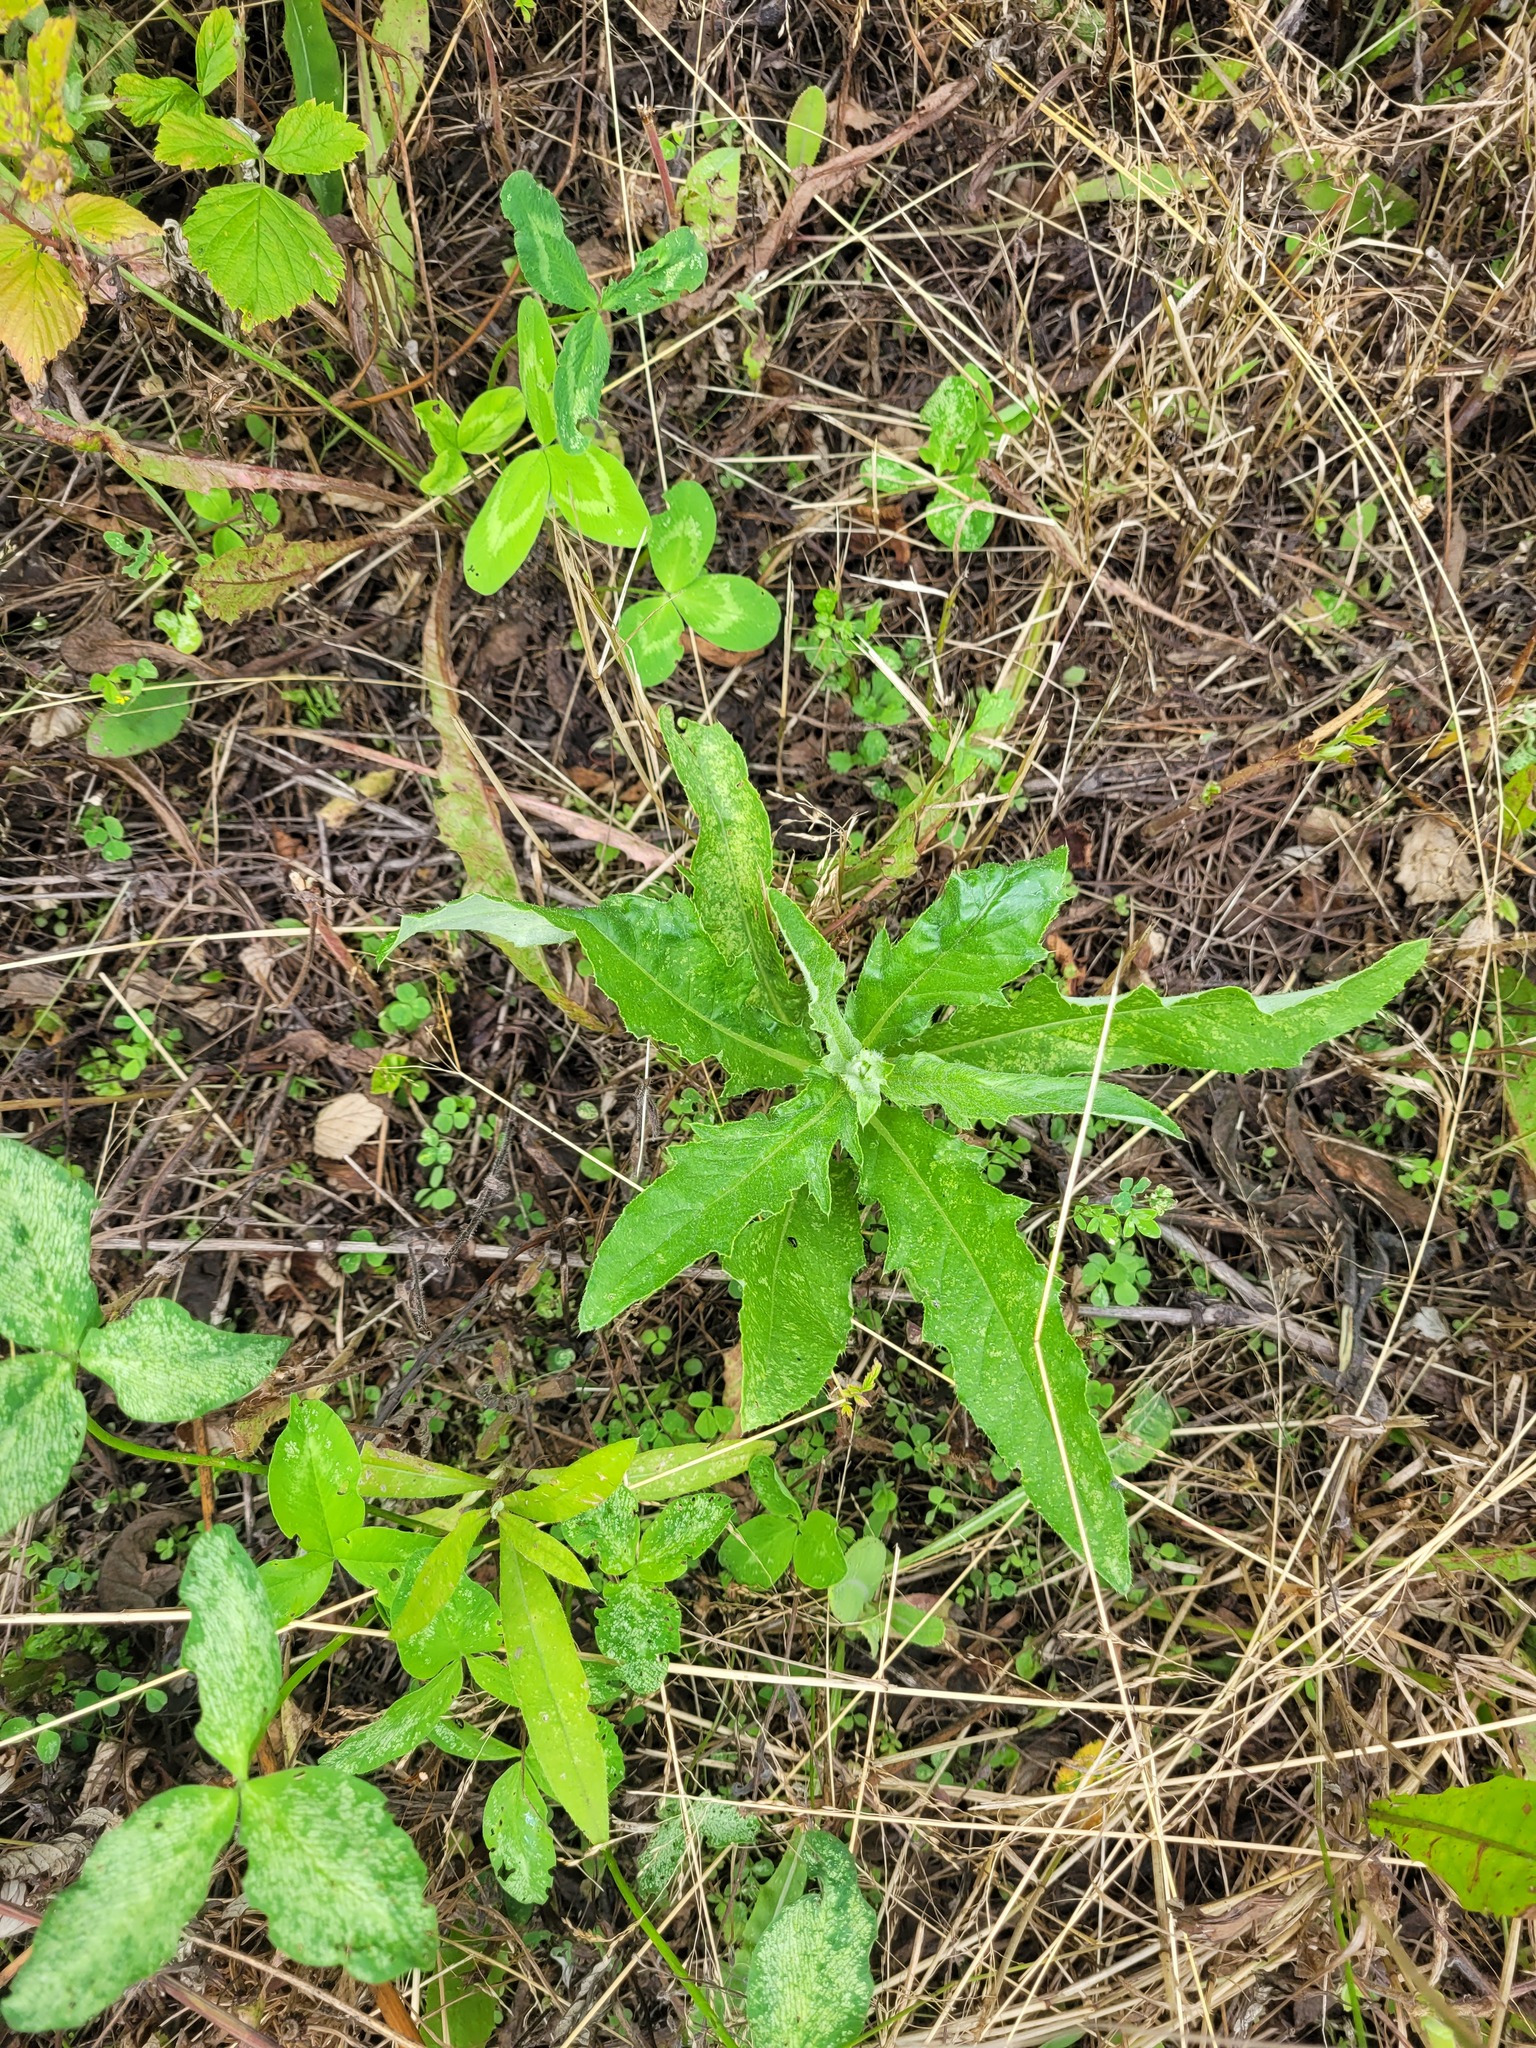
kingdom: Plantae
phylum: Tracheophyta
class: Magnoliopsida
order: Asterales
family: Asteraceae
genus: Cirsium
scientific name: Cirsium arvense
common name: Creeping thistle
